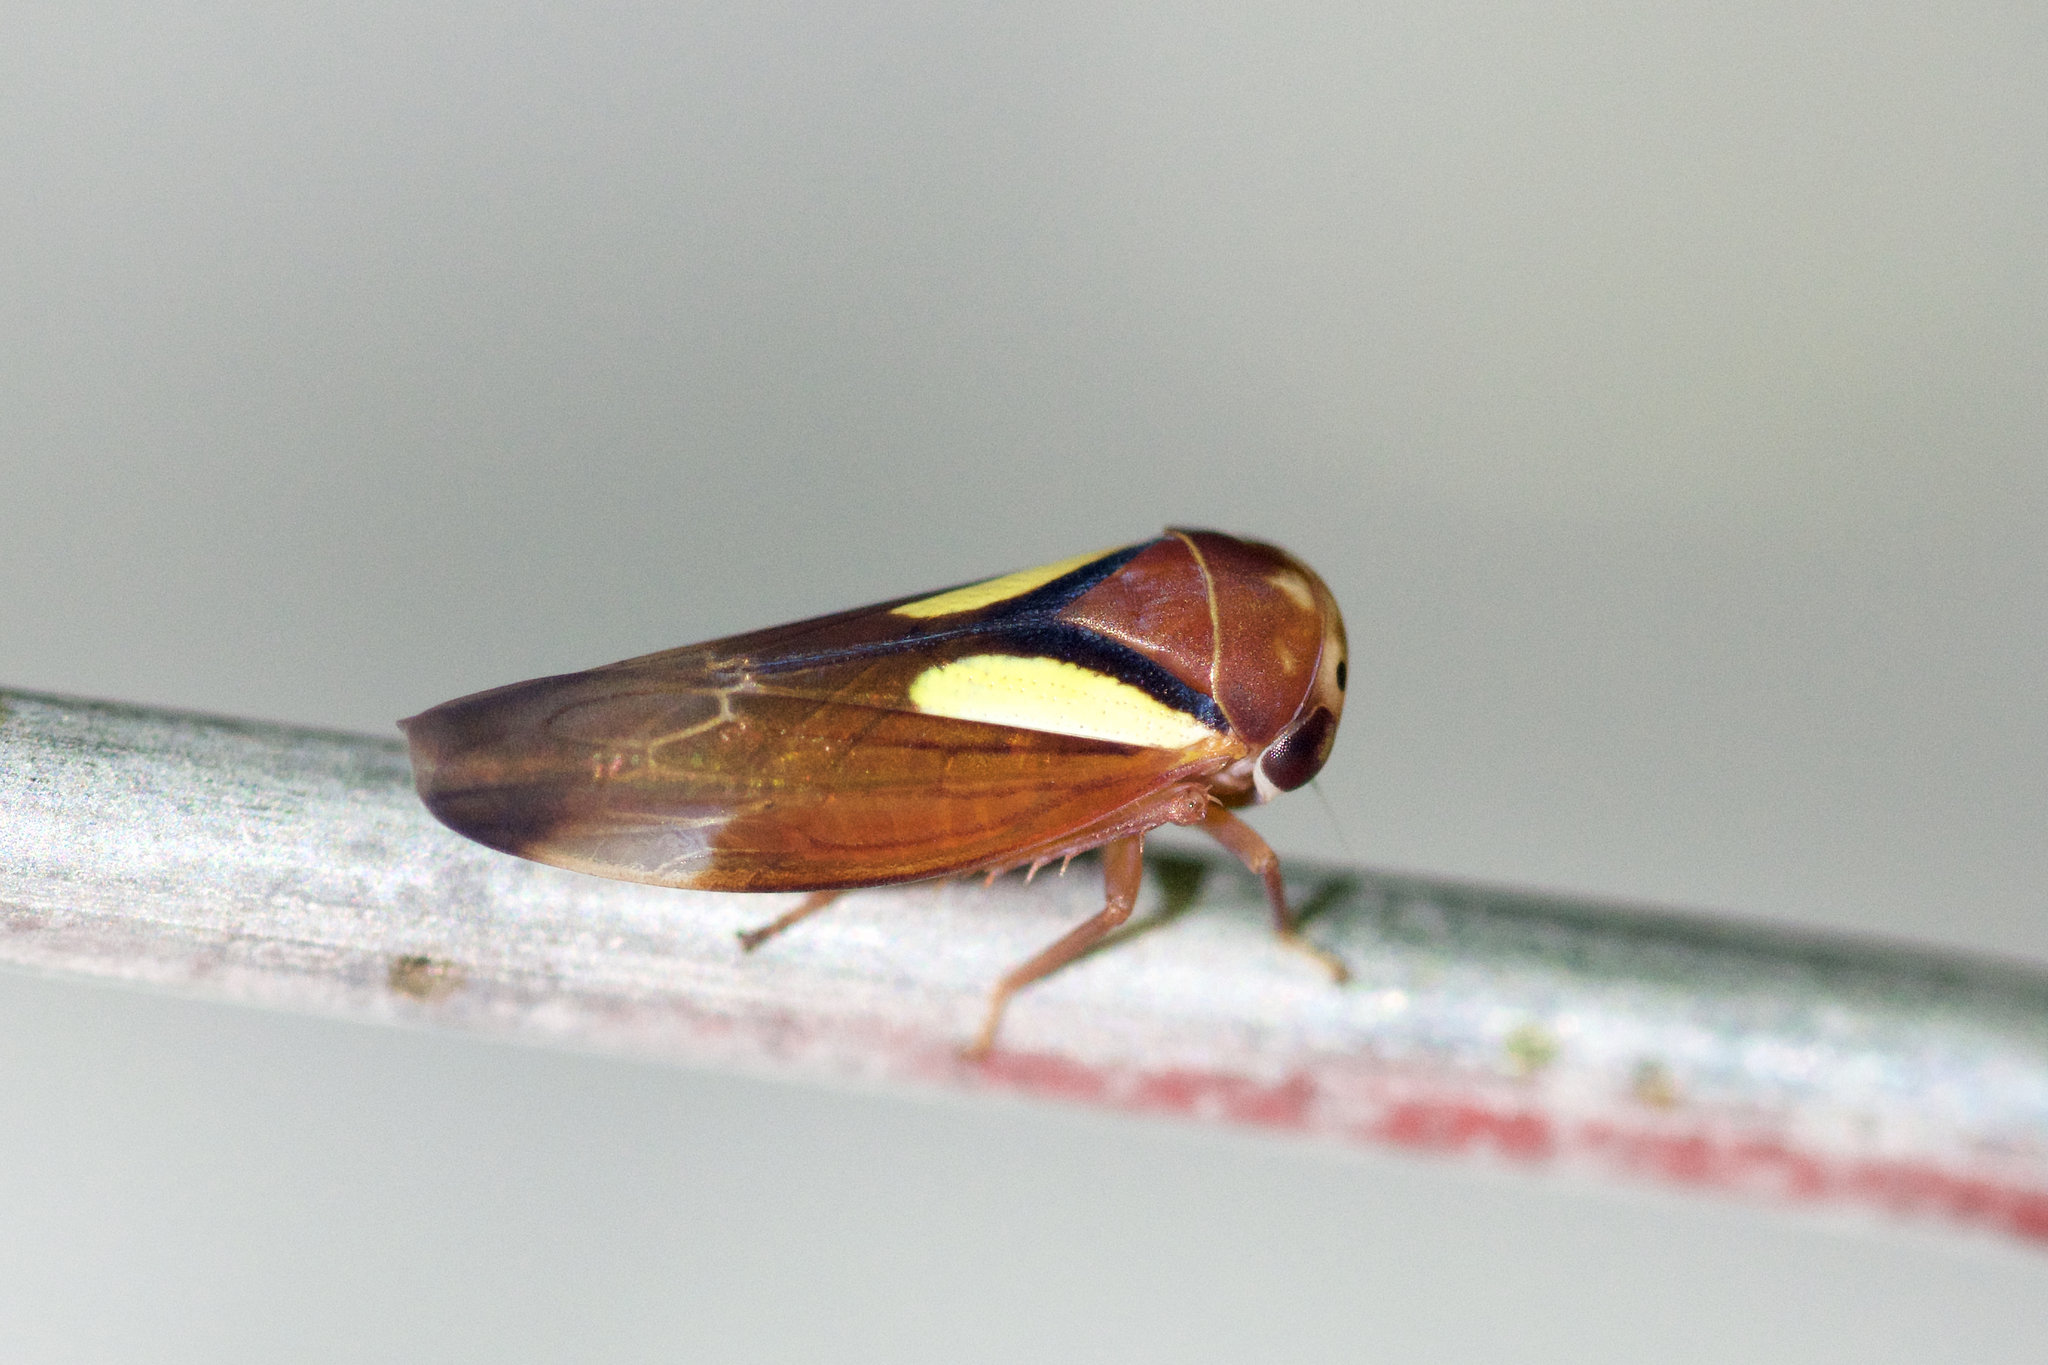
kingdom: Animalia
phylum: Arthropoda
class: Insecta
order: Hemiptera
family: Cicadellidae
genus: Balcanocerus
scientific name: Balcanocerus provancheri
